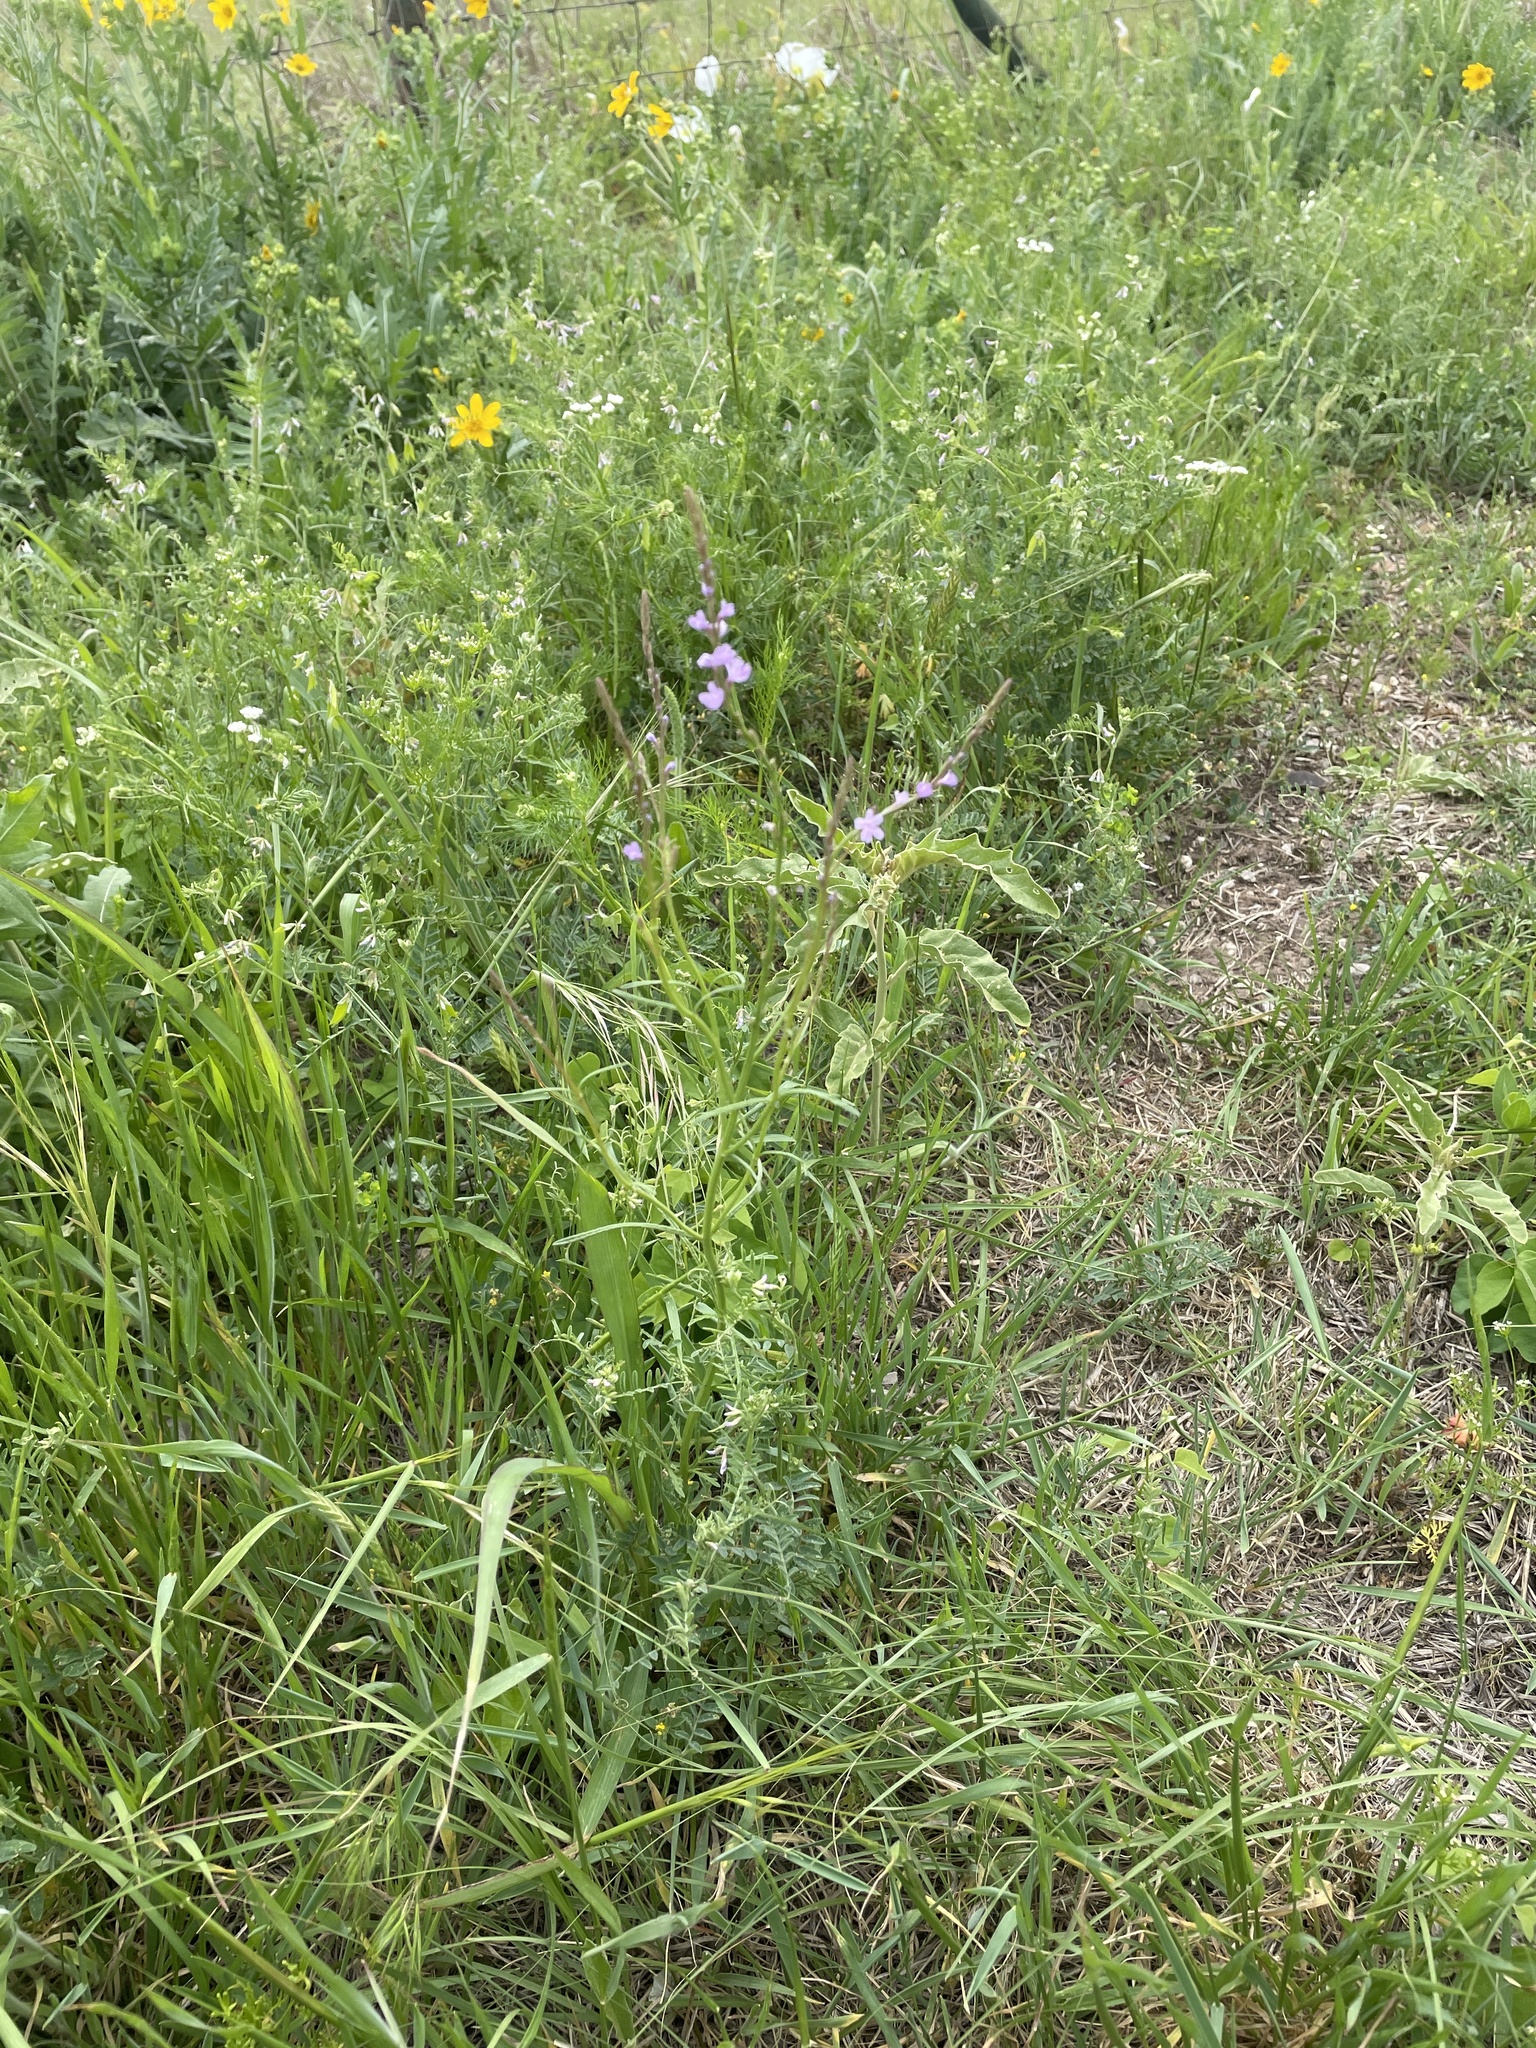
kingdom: Plantae
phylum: Tracheophyta
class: Magnoliopsida
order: Lamiales
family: Verbenaceae
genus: Verbena
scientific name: Verbena halei
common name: Texas vervain
